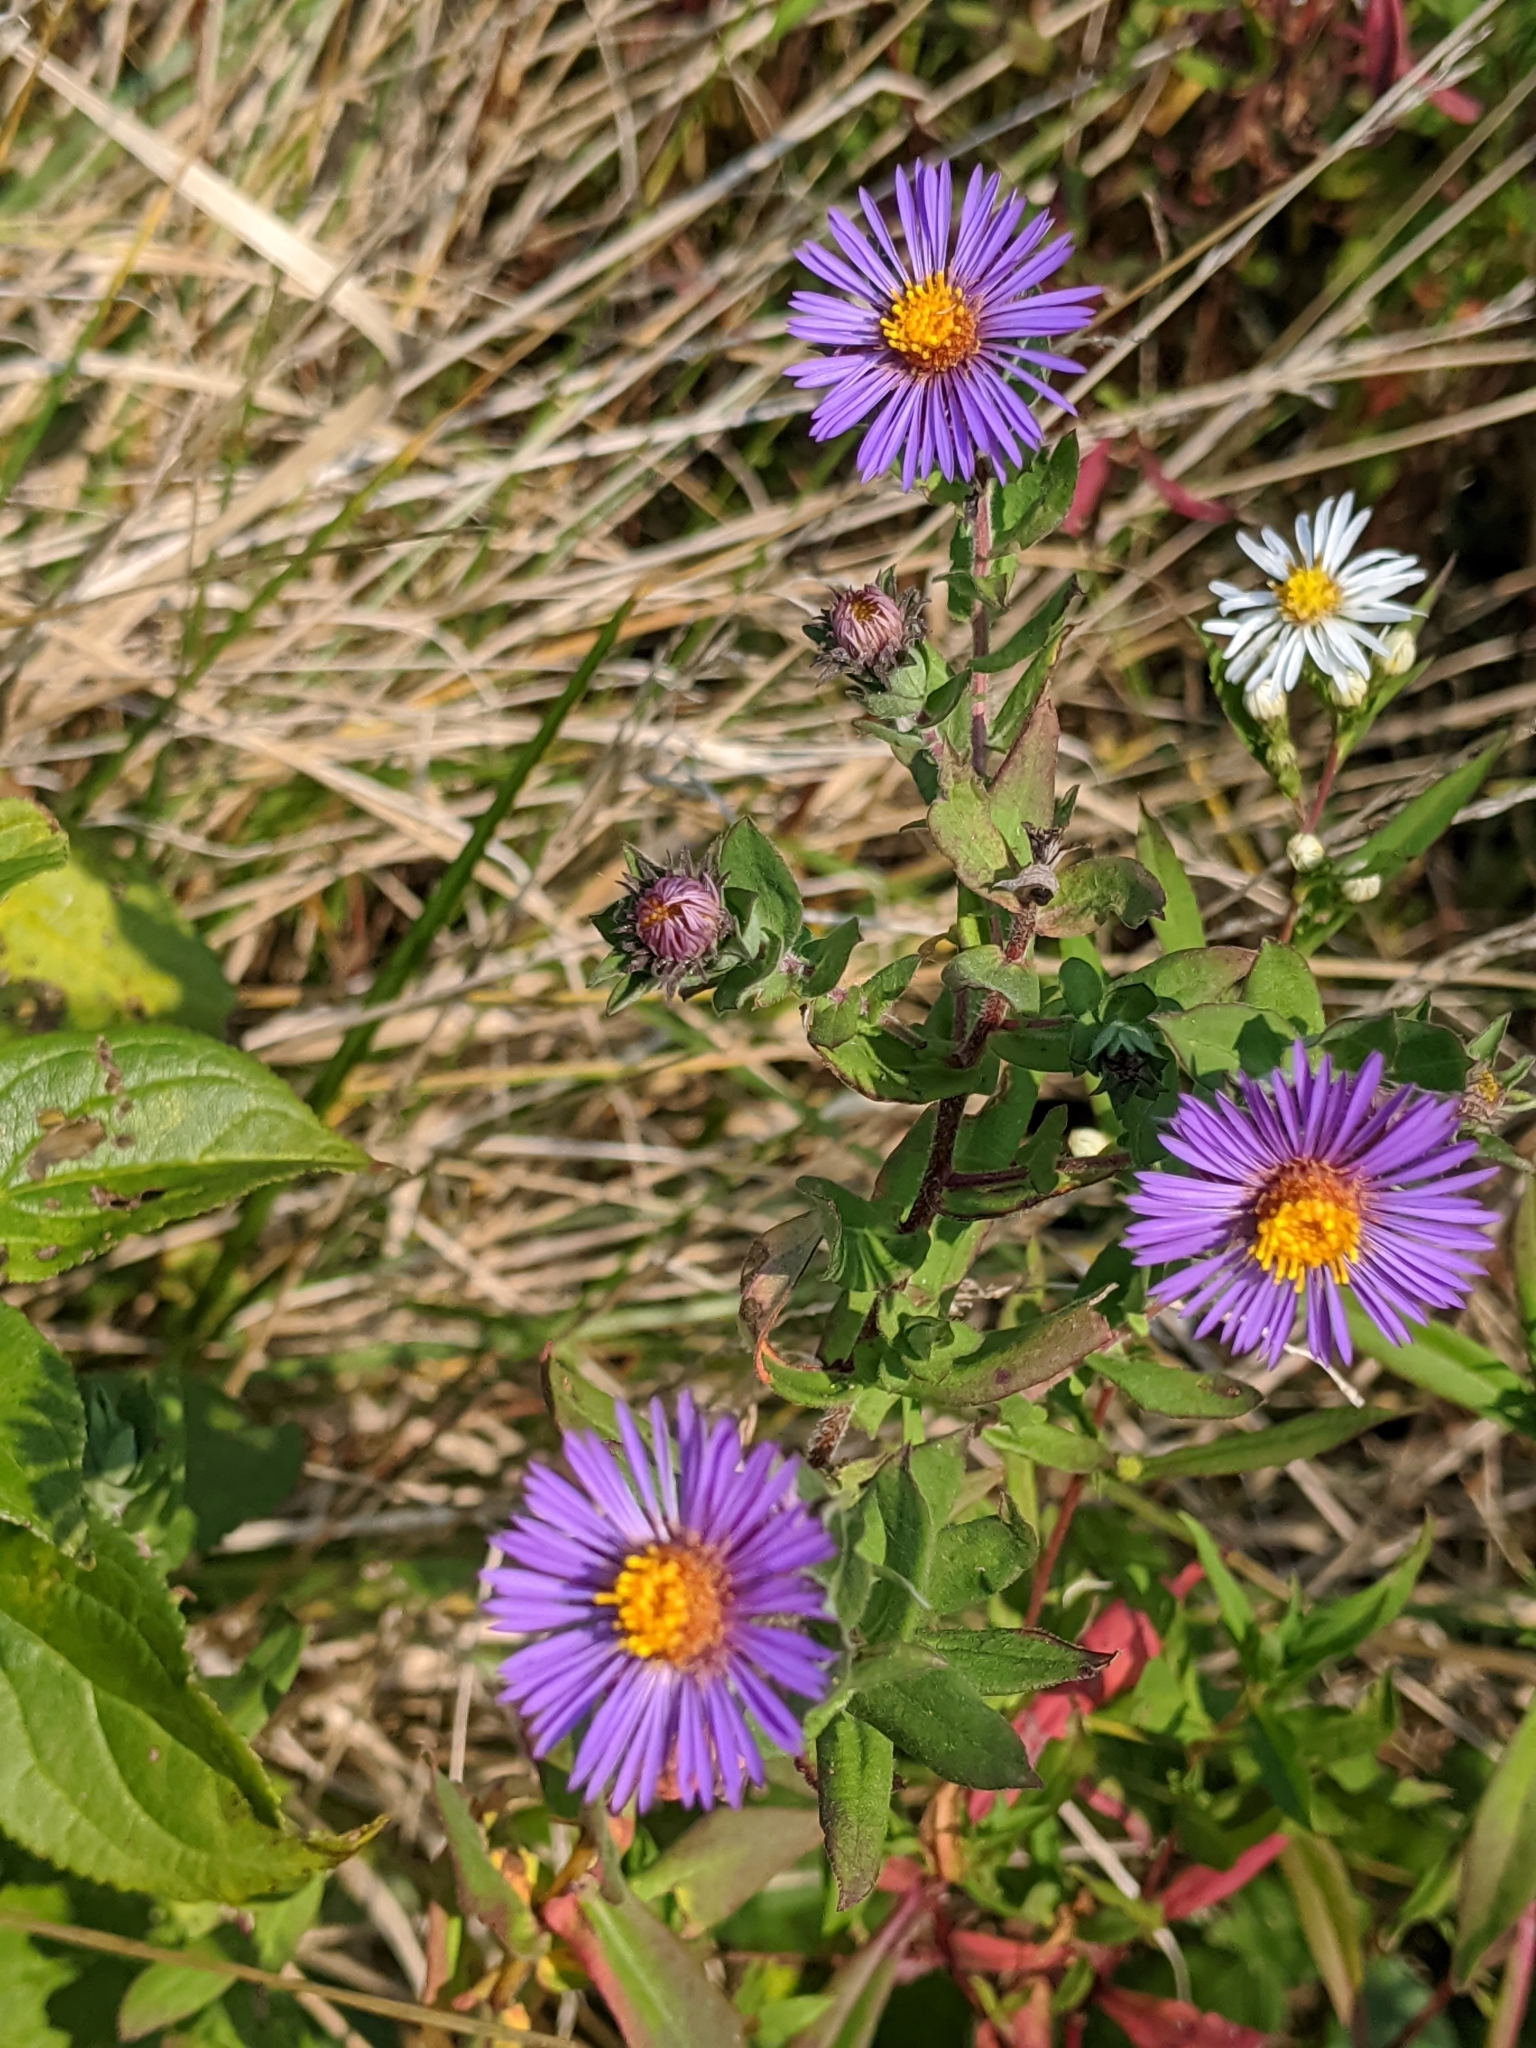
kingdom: Plantae
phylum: Tracheophyta
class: Magnoliopsida
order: Asterales
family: Asteraceae
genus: Symphyotrichum
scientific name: Symphyotrichum novae-angliae
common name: Michaelmas daisy
